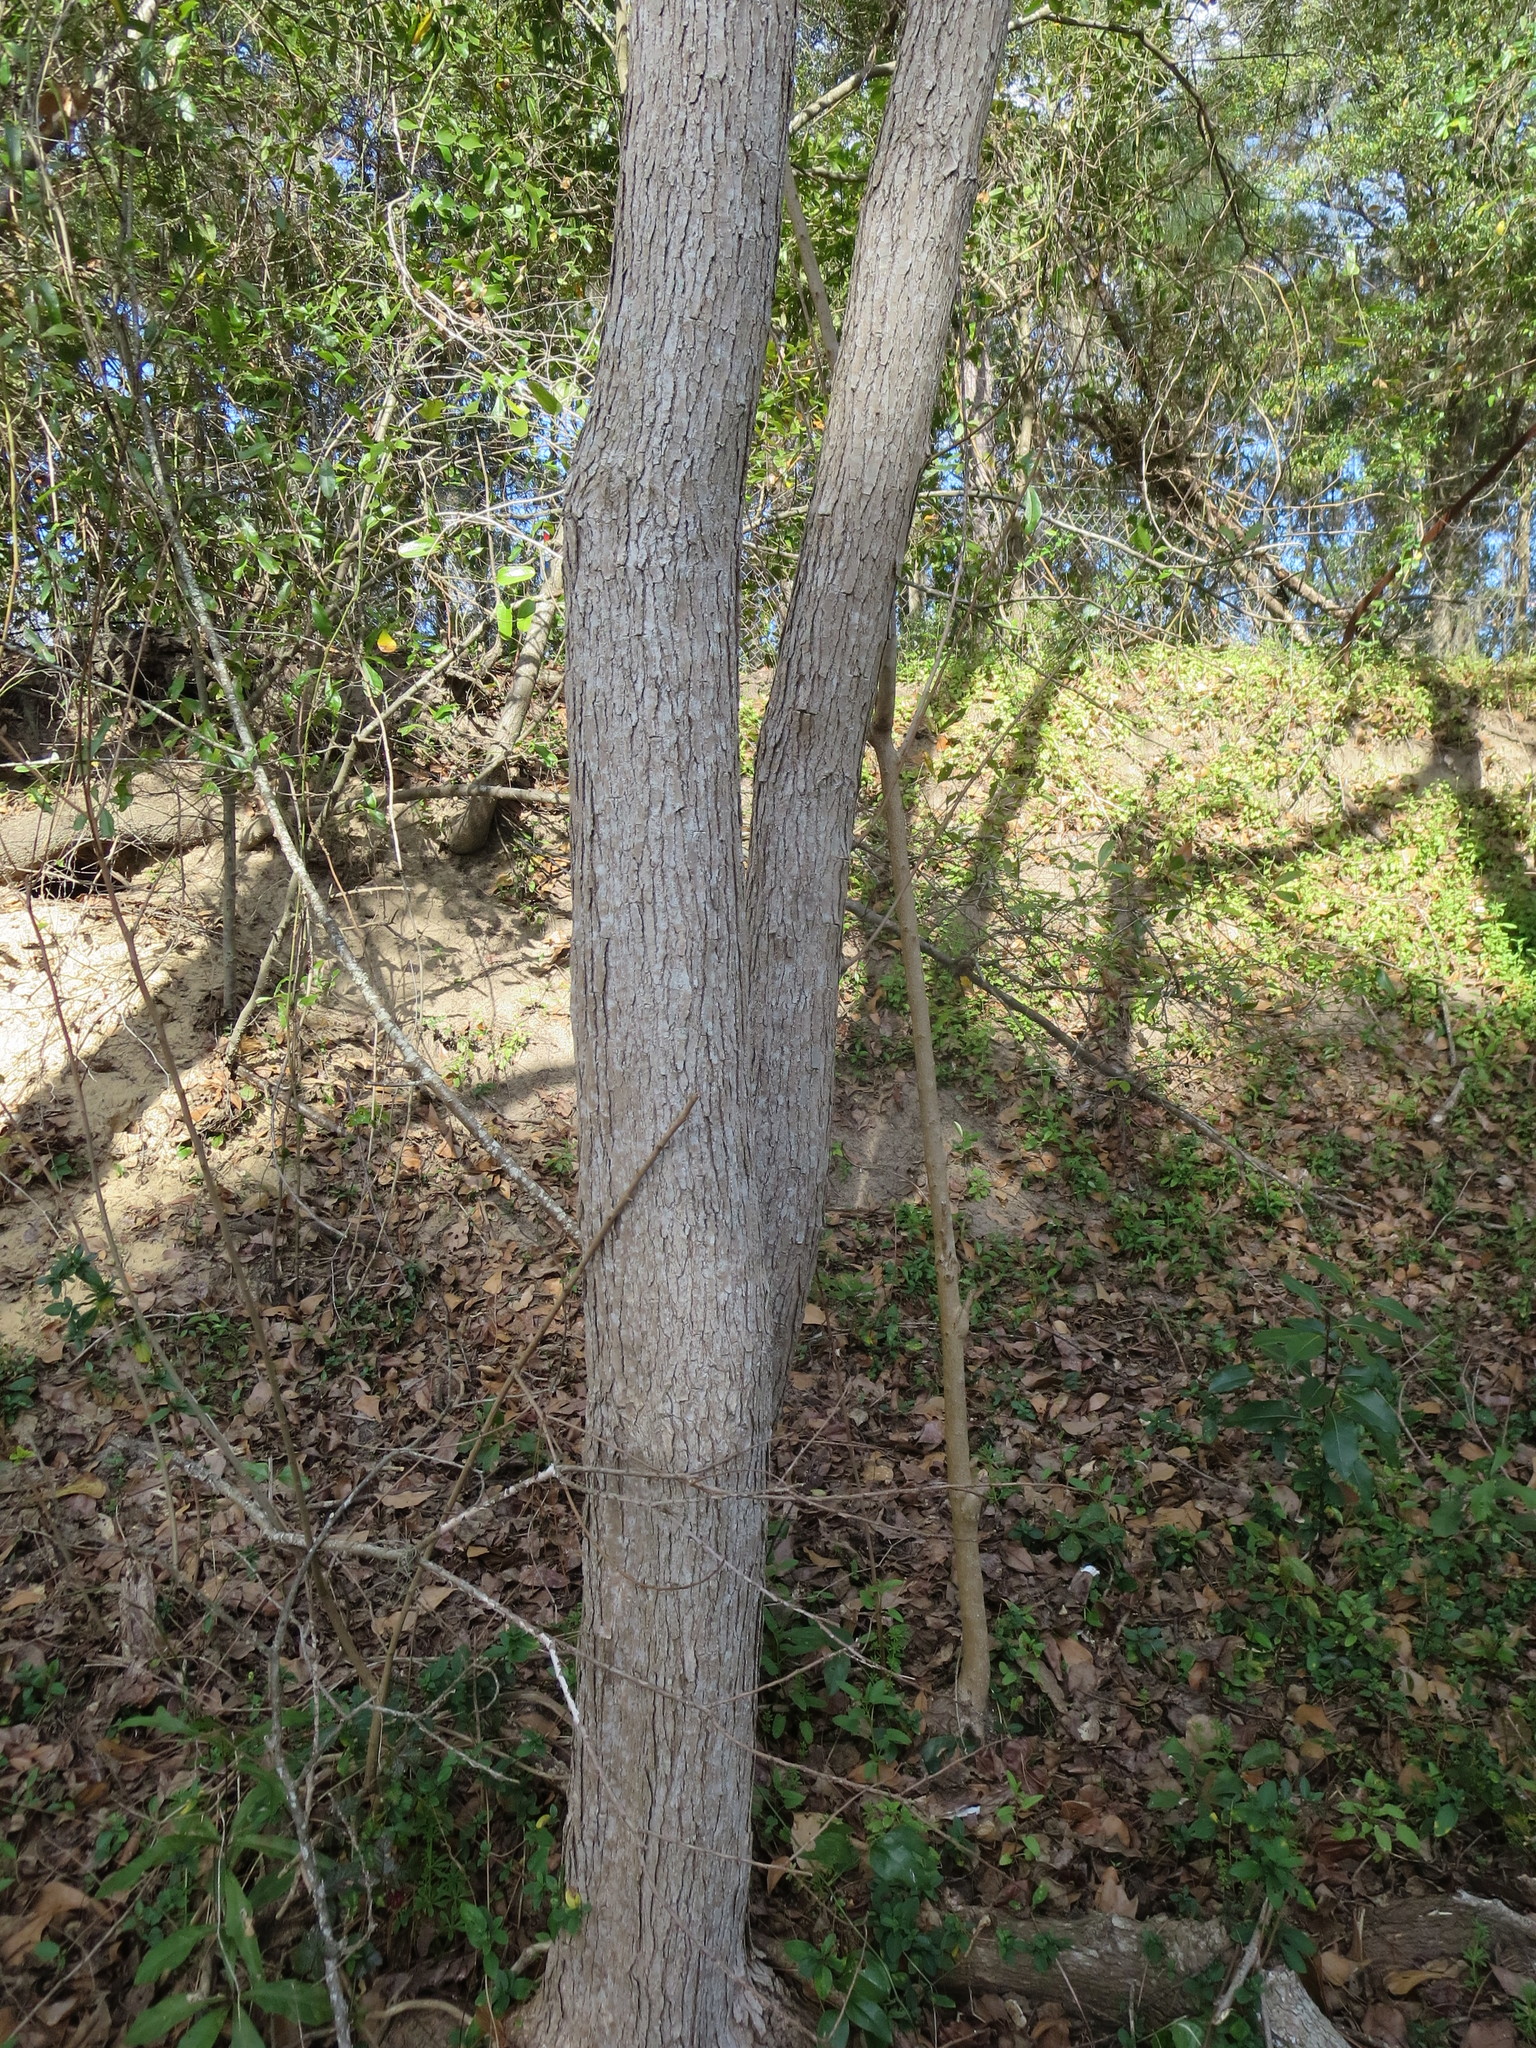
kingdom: Plantae
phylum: Tracheophyta
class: Magnoliopsida
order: Malpighiales
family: Euphorbiaceae
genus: Triadica
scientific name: Triadica sebifera
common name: Chinese tallow
